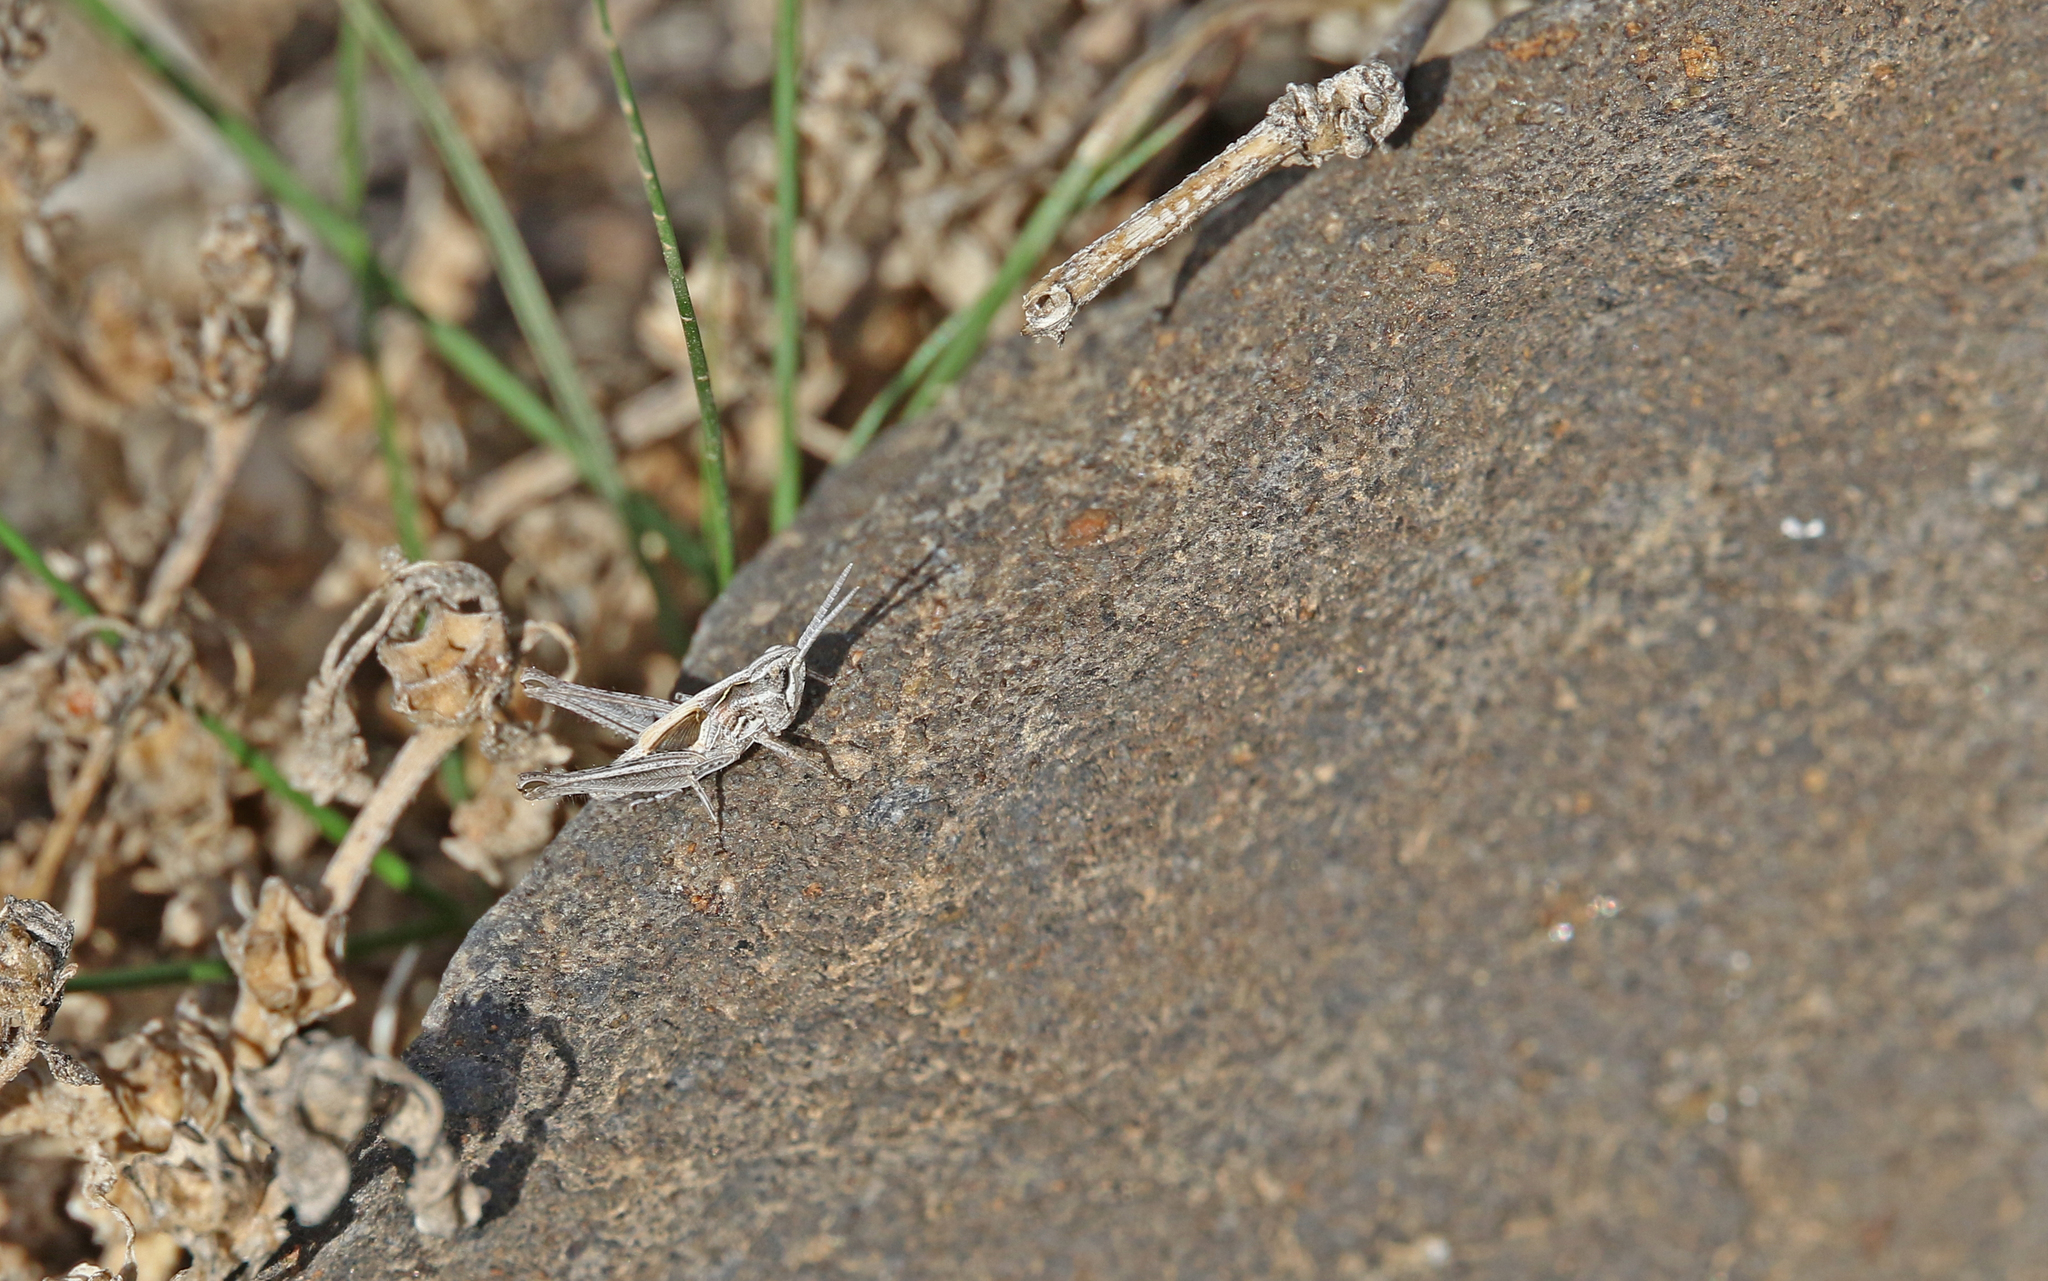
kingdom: Animalia
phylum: Arthropoda
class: Insecta
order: Orthoptera
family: Acrididae
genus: Omocestus
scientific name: Omocestus simonyi
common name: Purpurarian grasshopper
